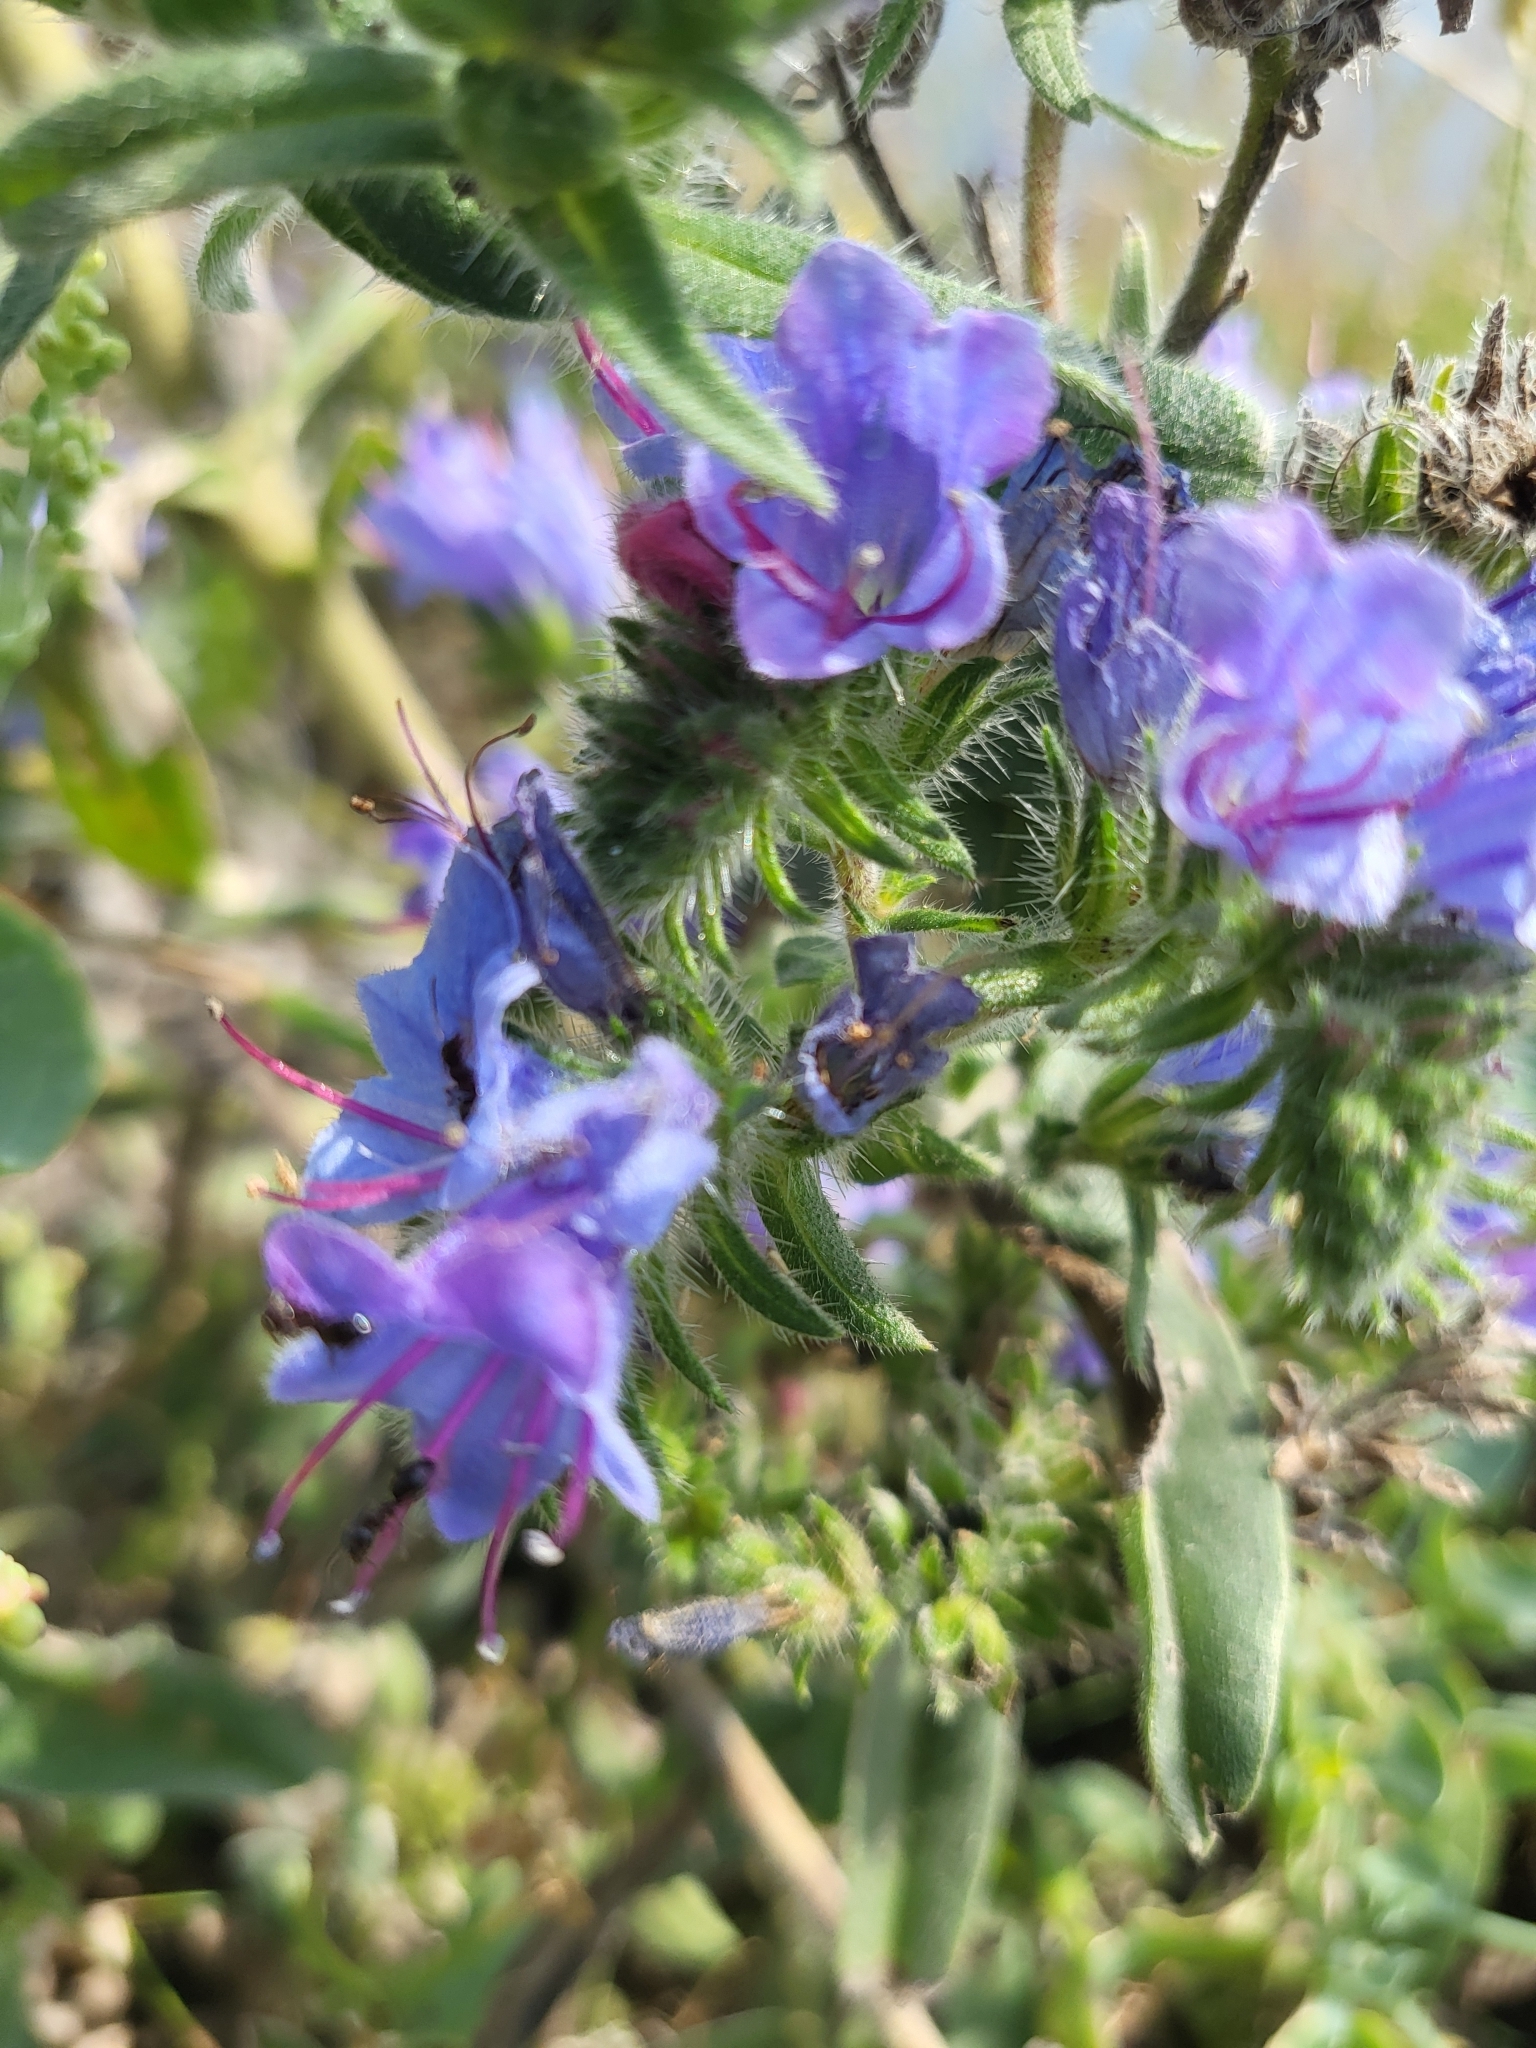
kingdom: Plantae
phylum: Tracheophyta
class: Magnoliopsida
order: Boraginales
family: Boraginaceae
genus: Echium
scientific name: Echium vulgare
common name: Common viper's bugloss
